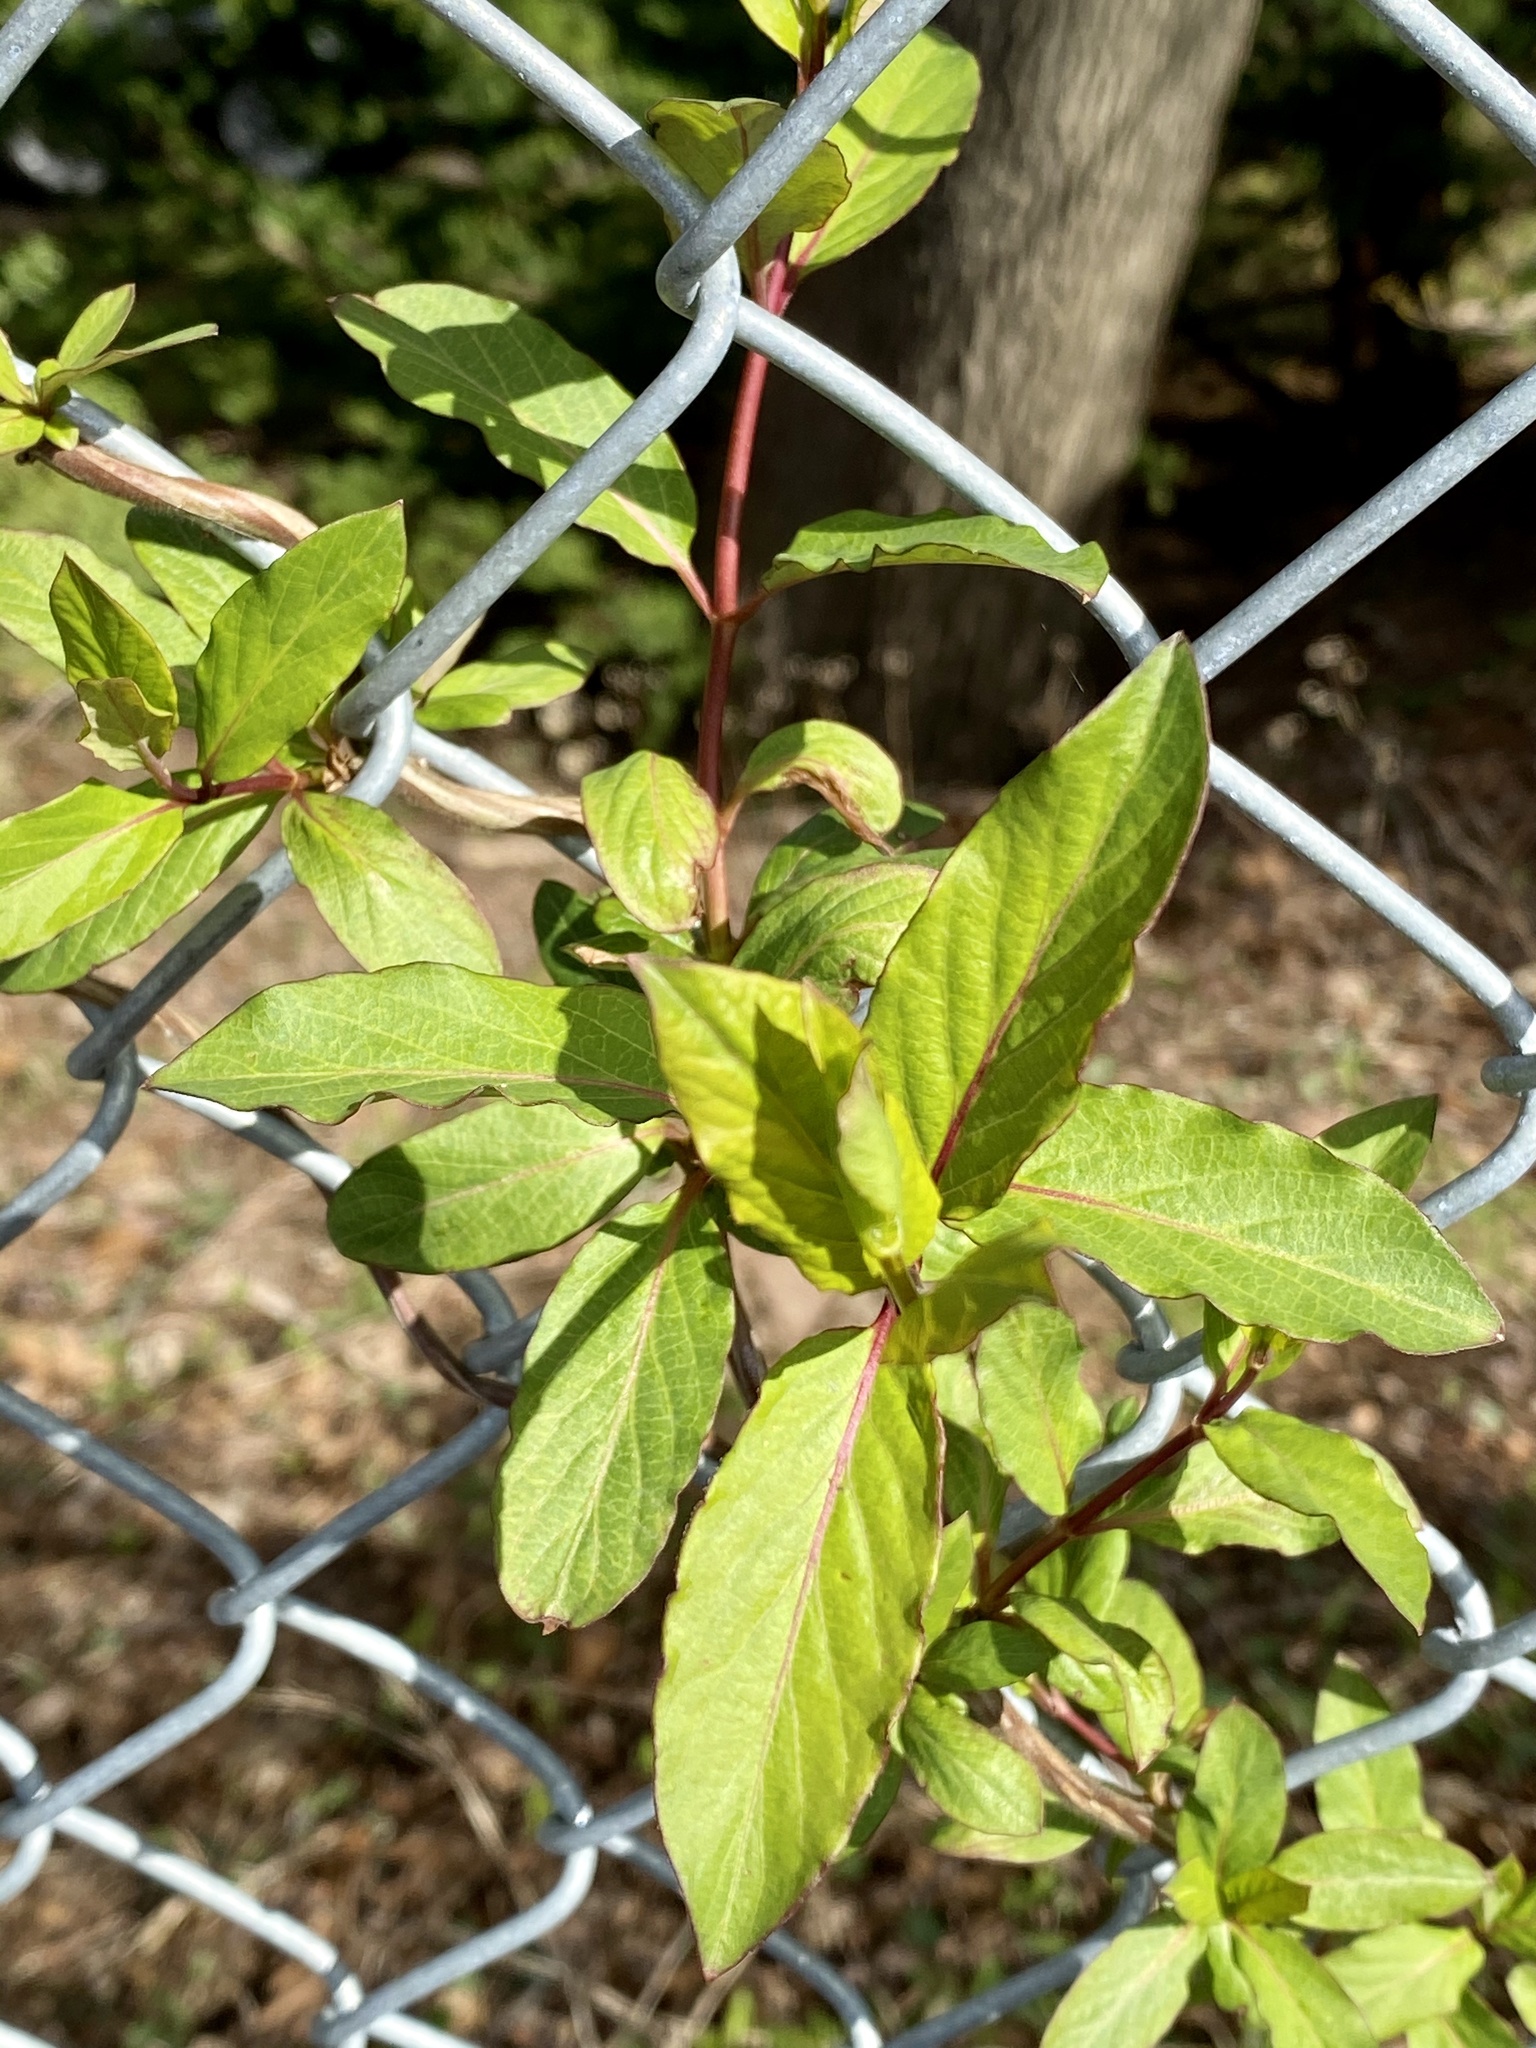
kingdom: Plantae
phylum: Tracheophyta
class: Magnoliopsida
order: Dipsacales
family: Caprifoliaceae
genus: Lonicera
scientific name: Lonicera japonica
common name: Japanese honeysuckle
